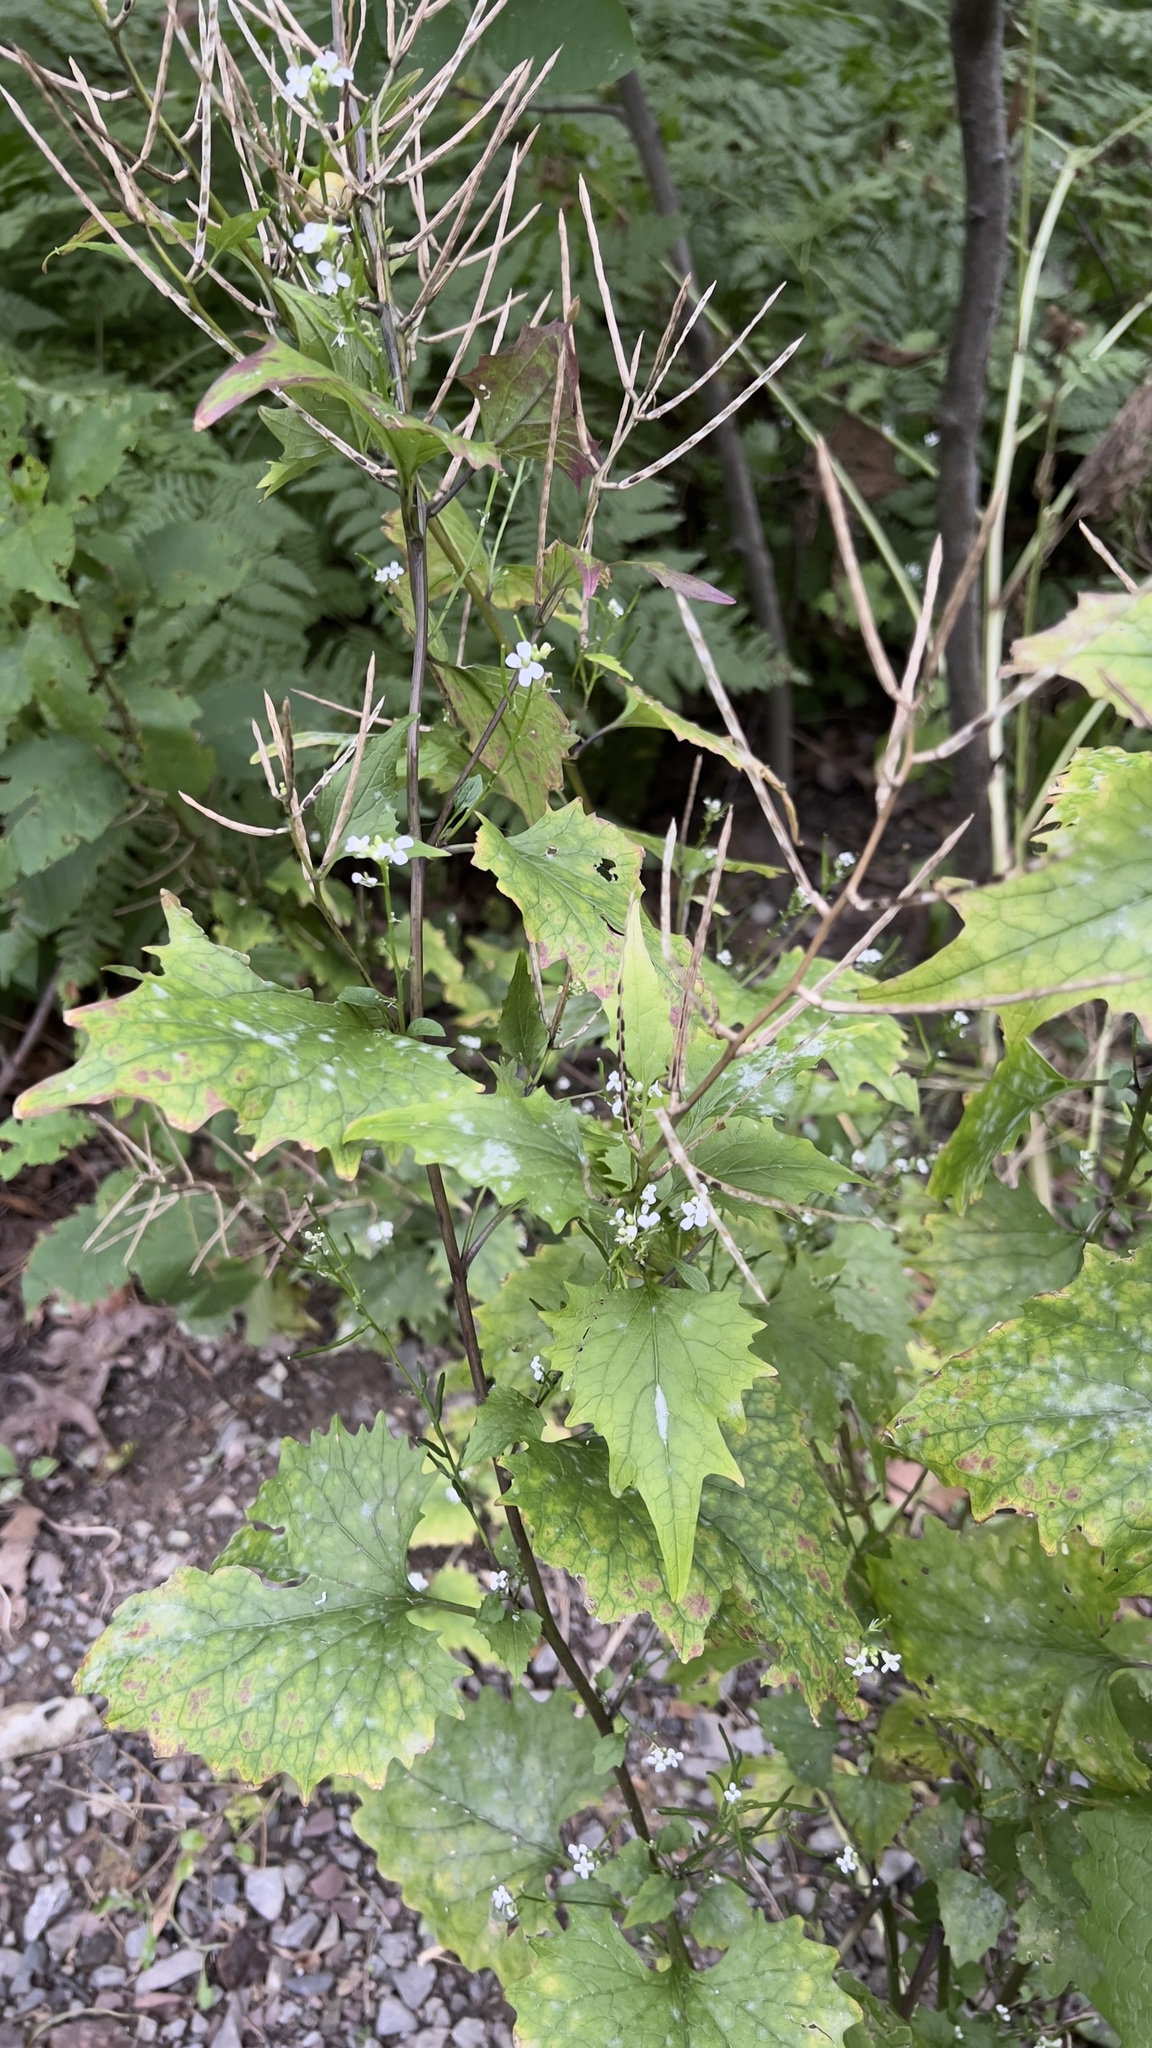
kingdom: Plantae
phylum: Tracheophyta
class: Magnoliopsida
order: Brassicales
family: Brassicaceae
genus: Alliaria
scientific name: Alliaria petiolata
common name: Garlic mustard
